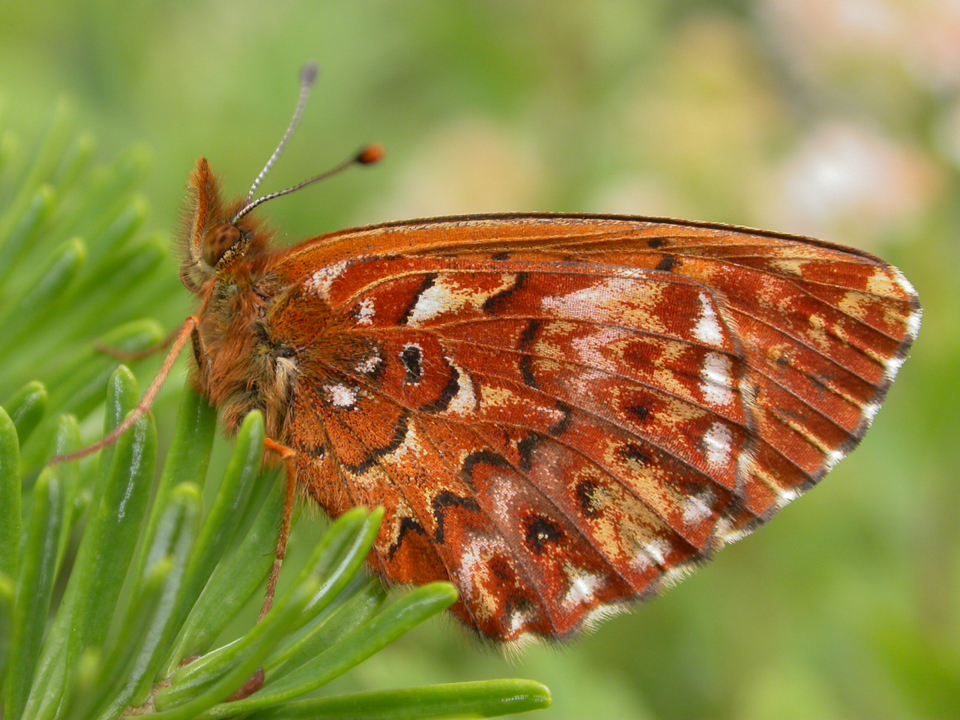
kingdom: Animalia
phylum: Arthropoda
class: Insecta
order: Lepidoptera
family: Nymphalidae
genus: Clossiana
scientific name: Clossiana montinus
